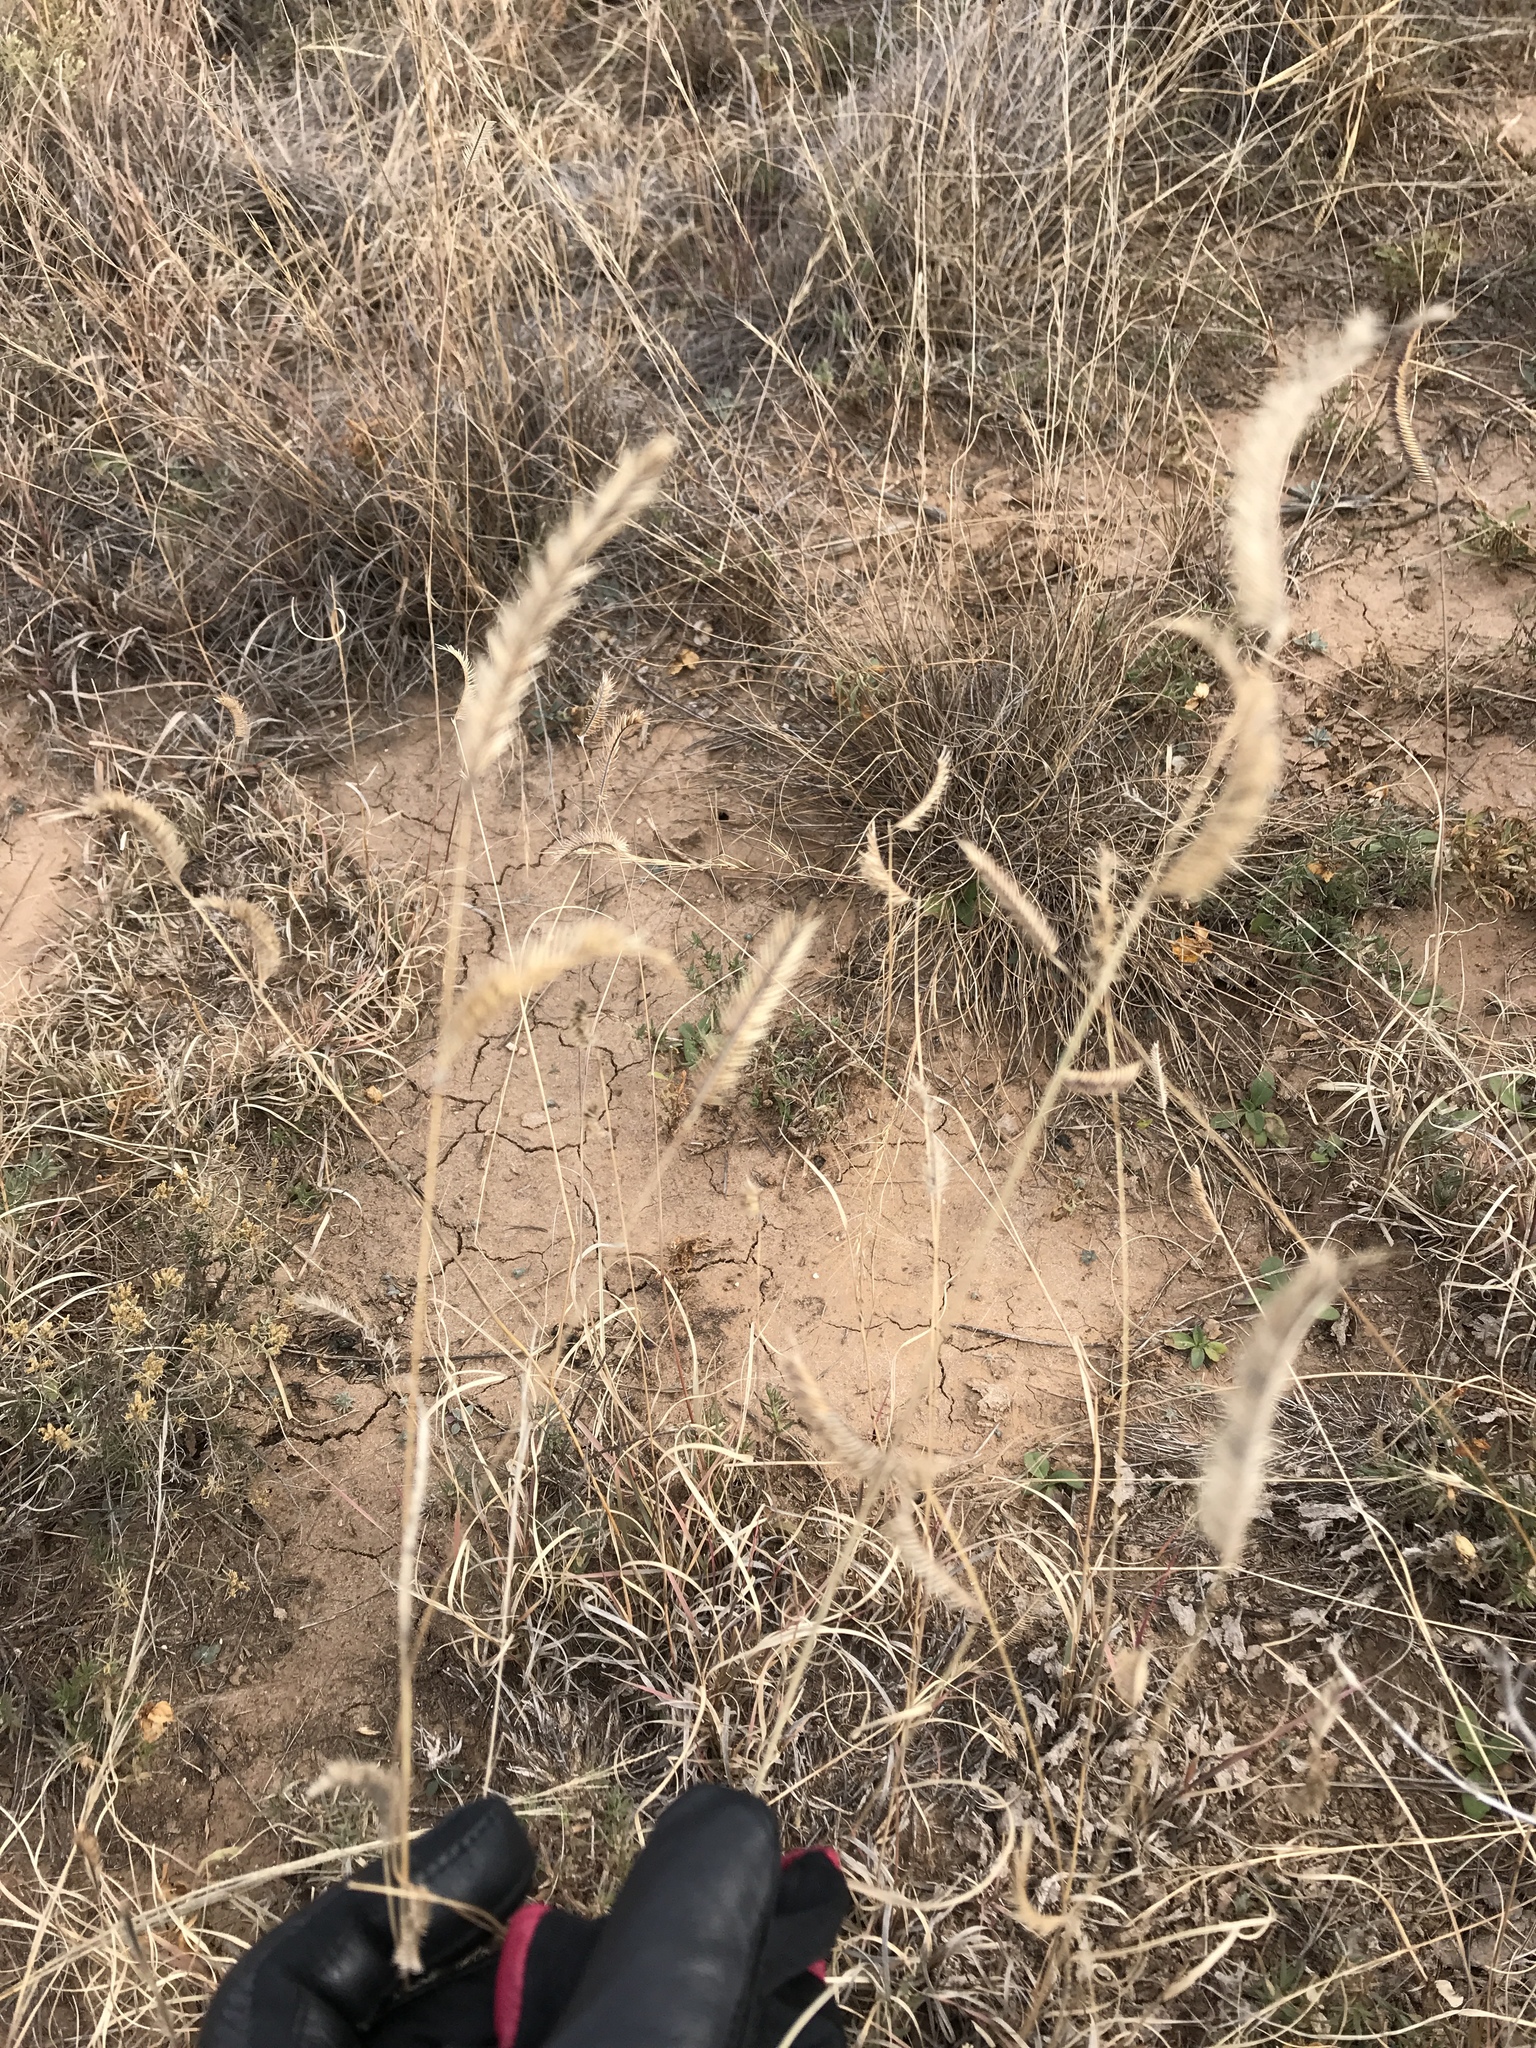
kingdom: Plantae
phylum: Tracheophyta
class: Liliopsida
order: Poales
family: Poaceae
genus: Bouteloua
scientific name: Bouteloua gracilis
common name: Blue grama
